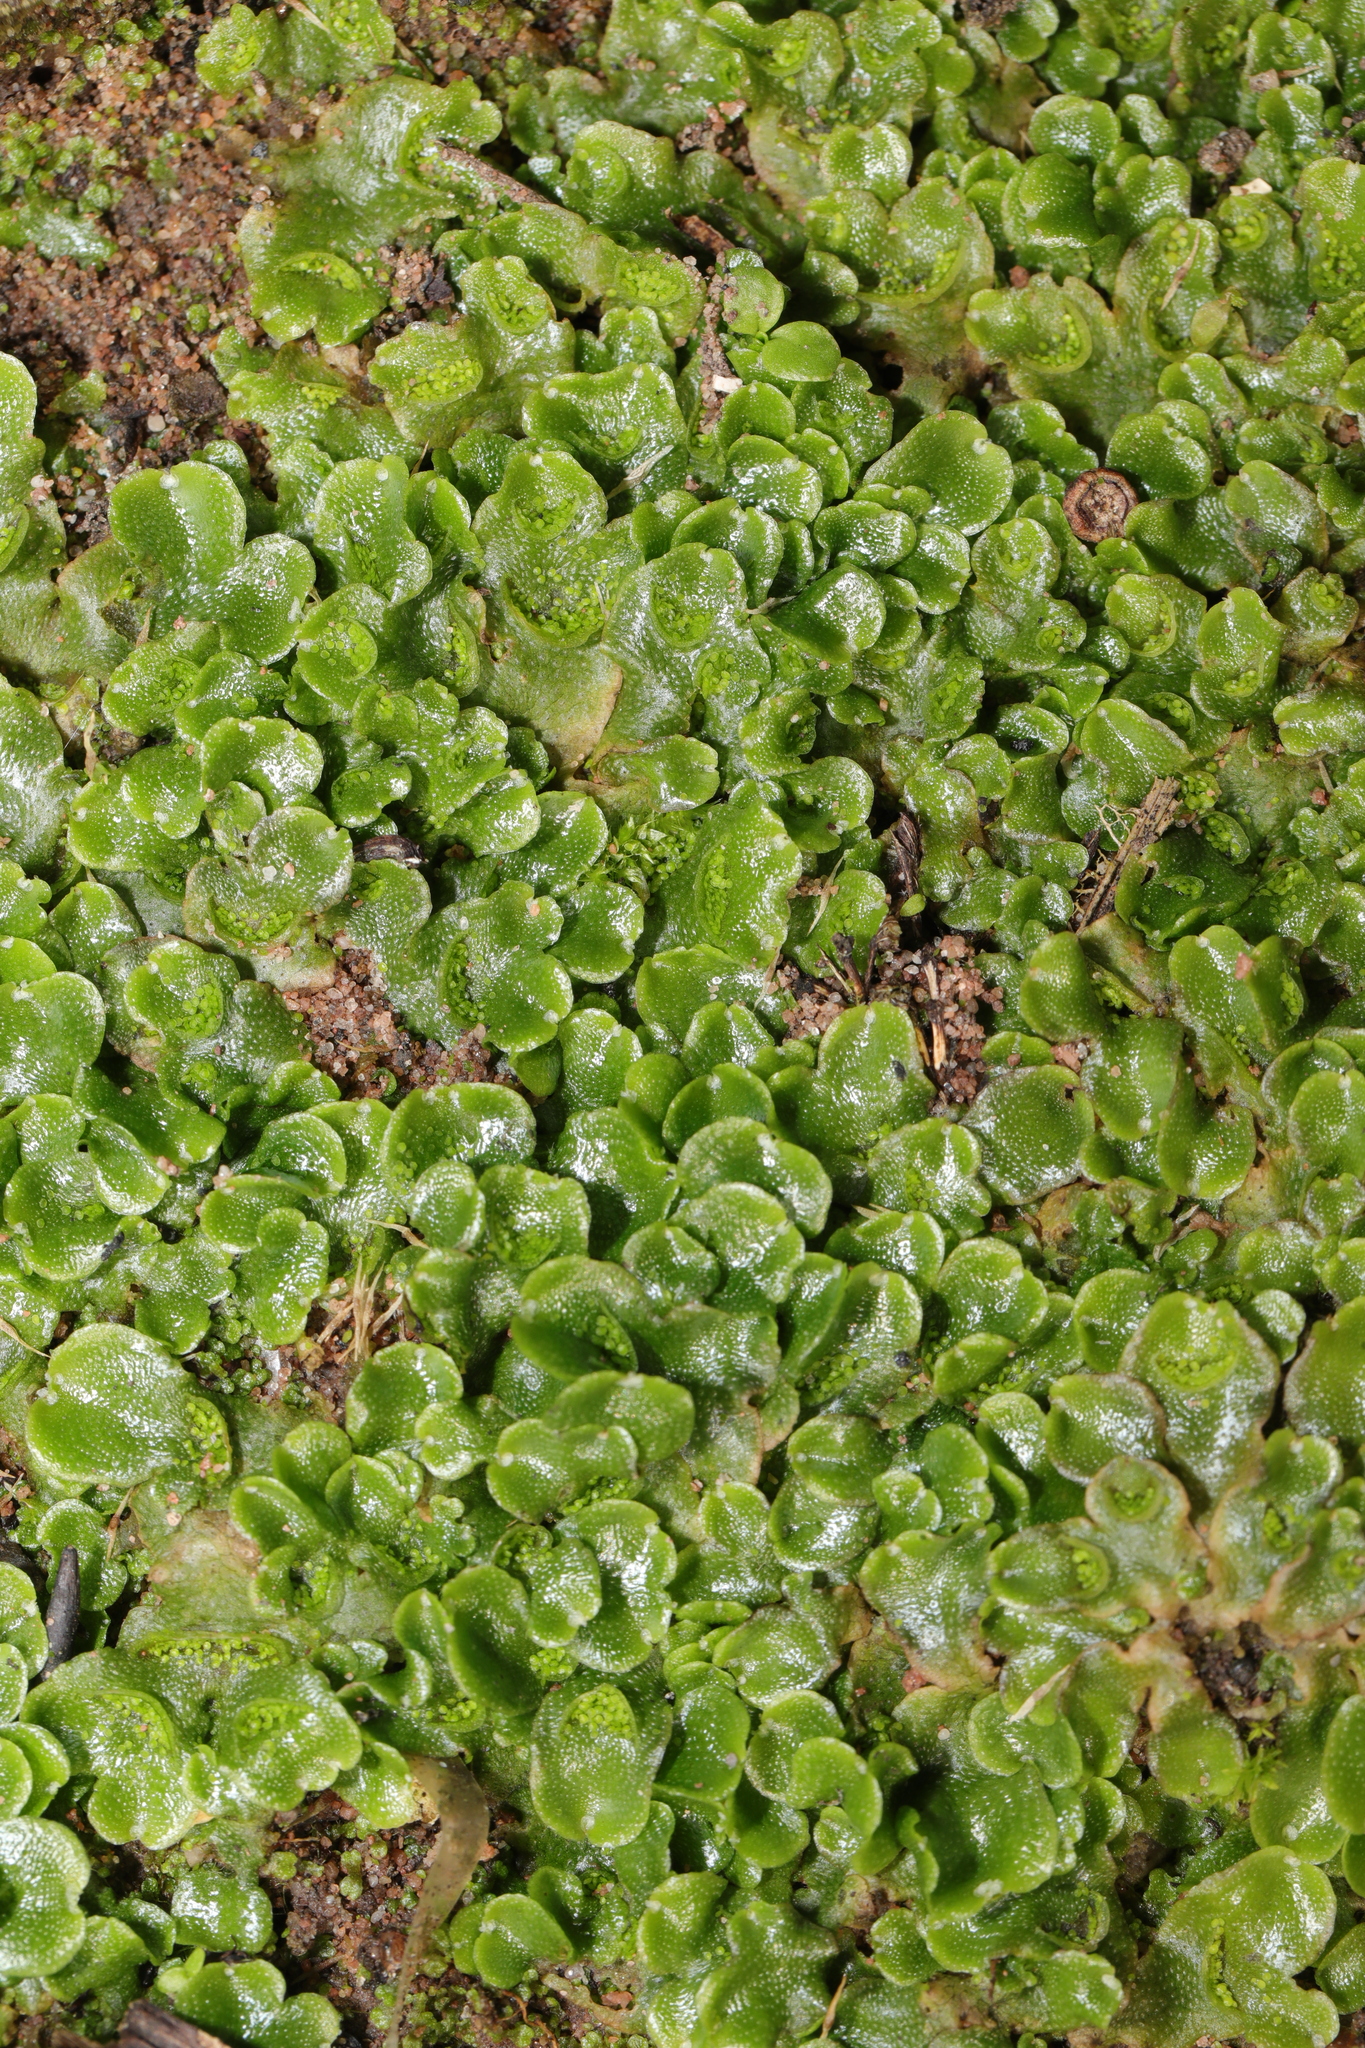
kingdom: Plantae
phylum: Marchantiophyta
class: Marchantiopsida
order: Lunulariales
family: Lunulariaceae
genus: Lunularia
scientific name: Lunularia cruciata
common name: Crescent-cup liverwort
